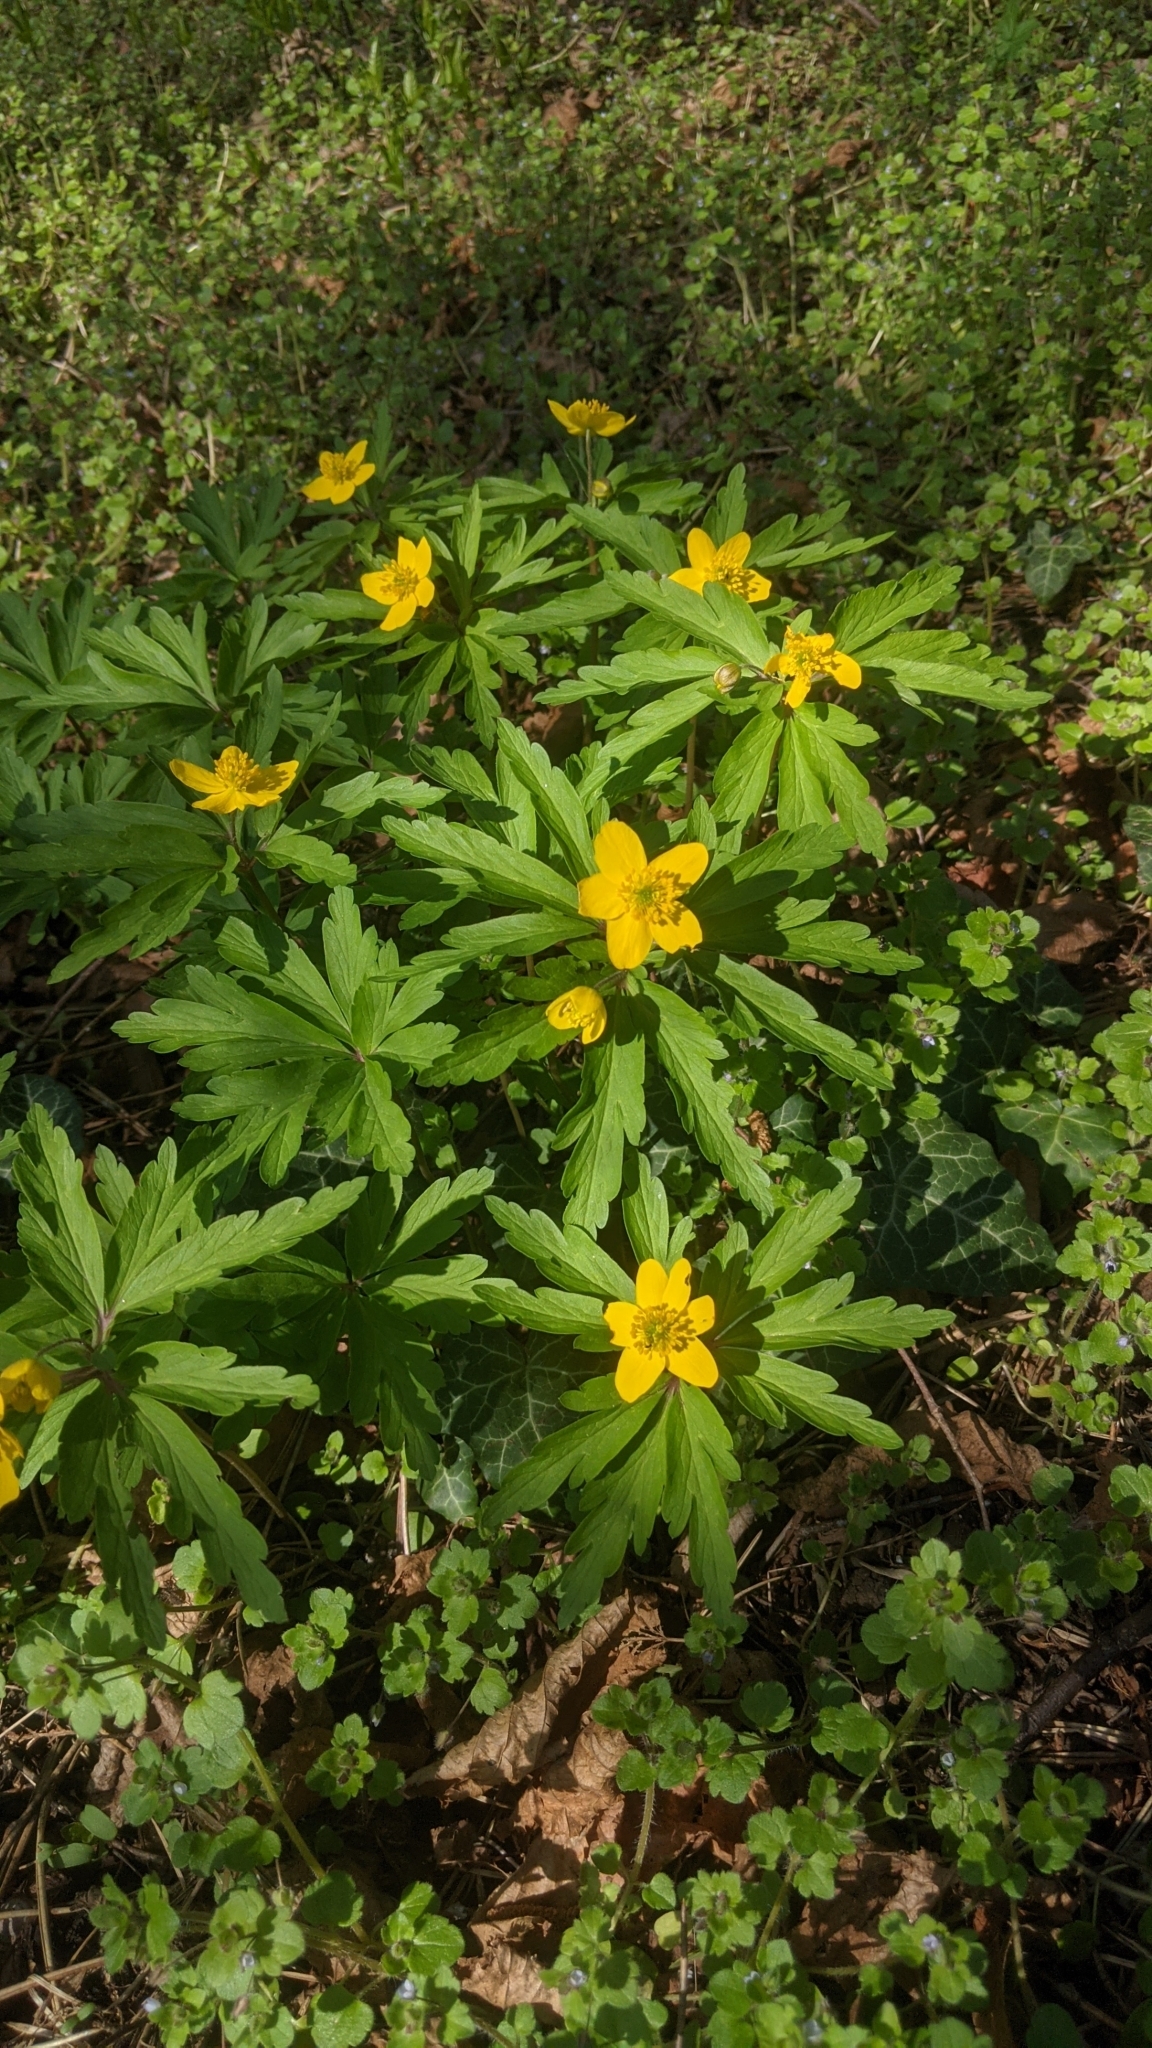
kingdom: Plantae
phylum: Tracheophyta
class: Magnoliopsida
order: Ranunculales
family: Ranunculaceae
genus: Anemone
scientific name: Anemone ranunculoides
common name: Yellow anemone
